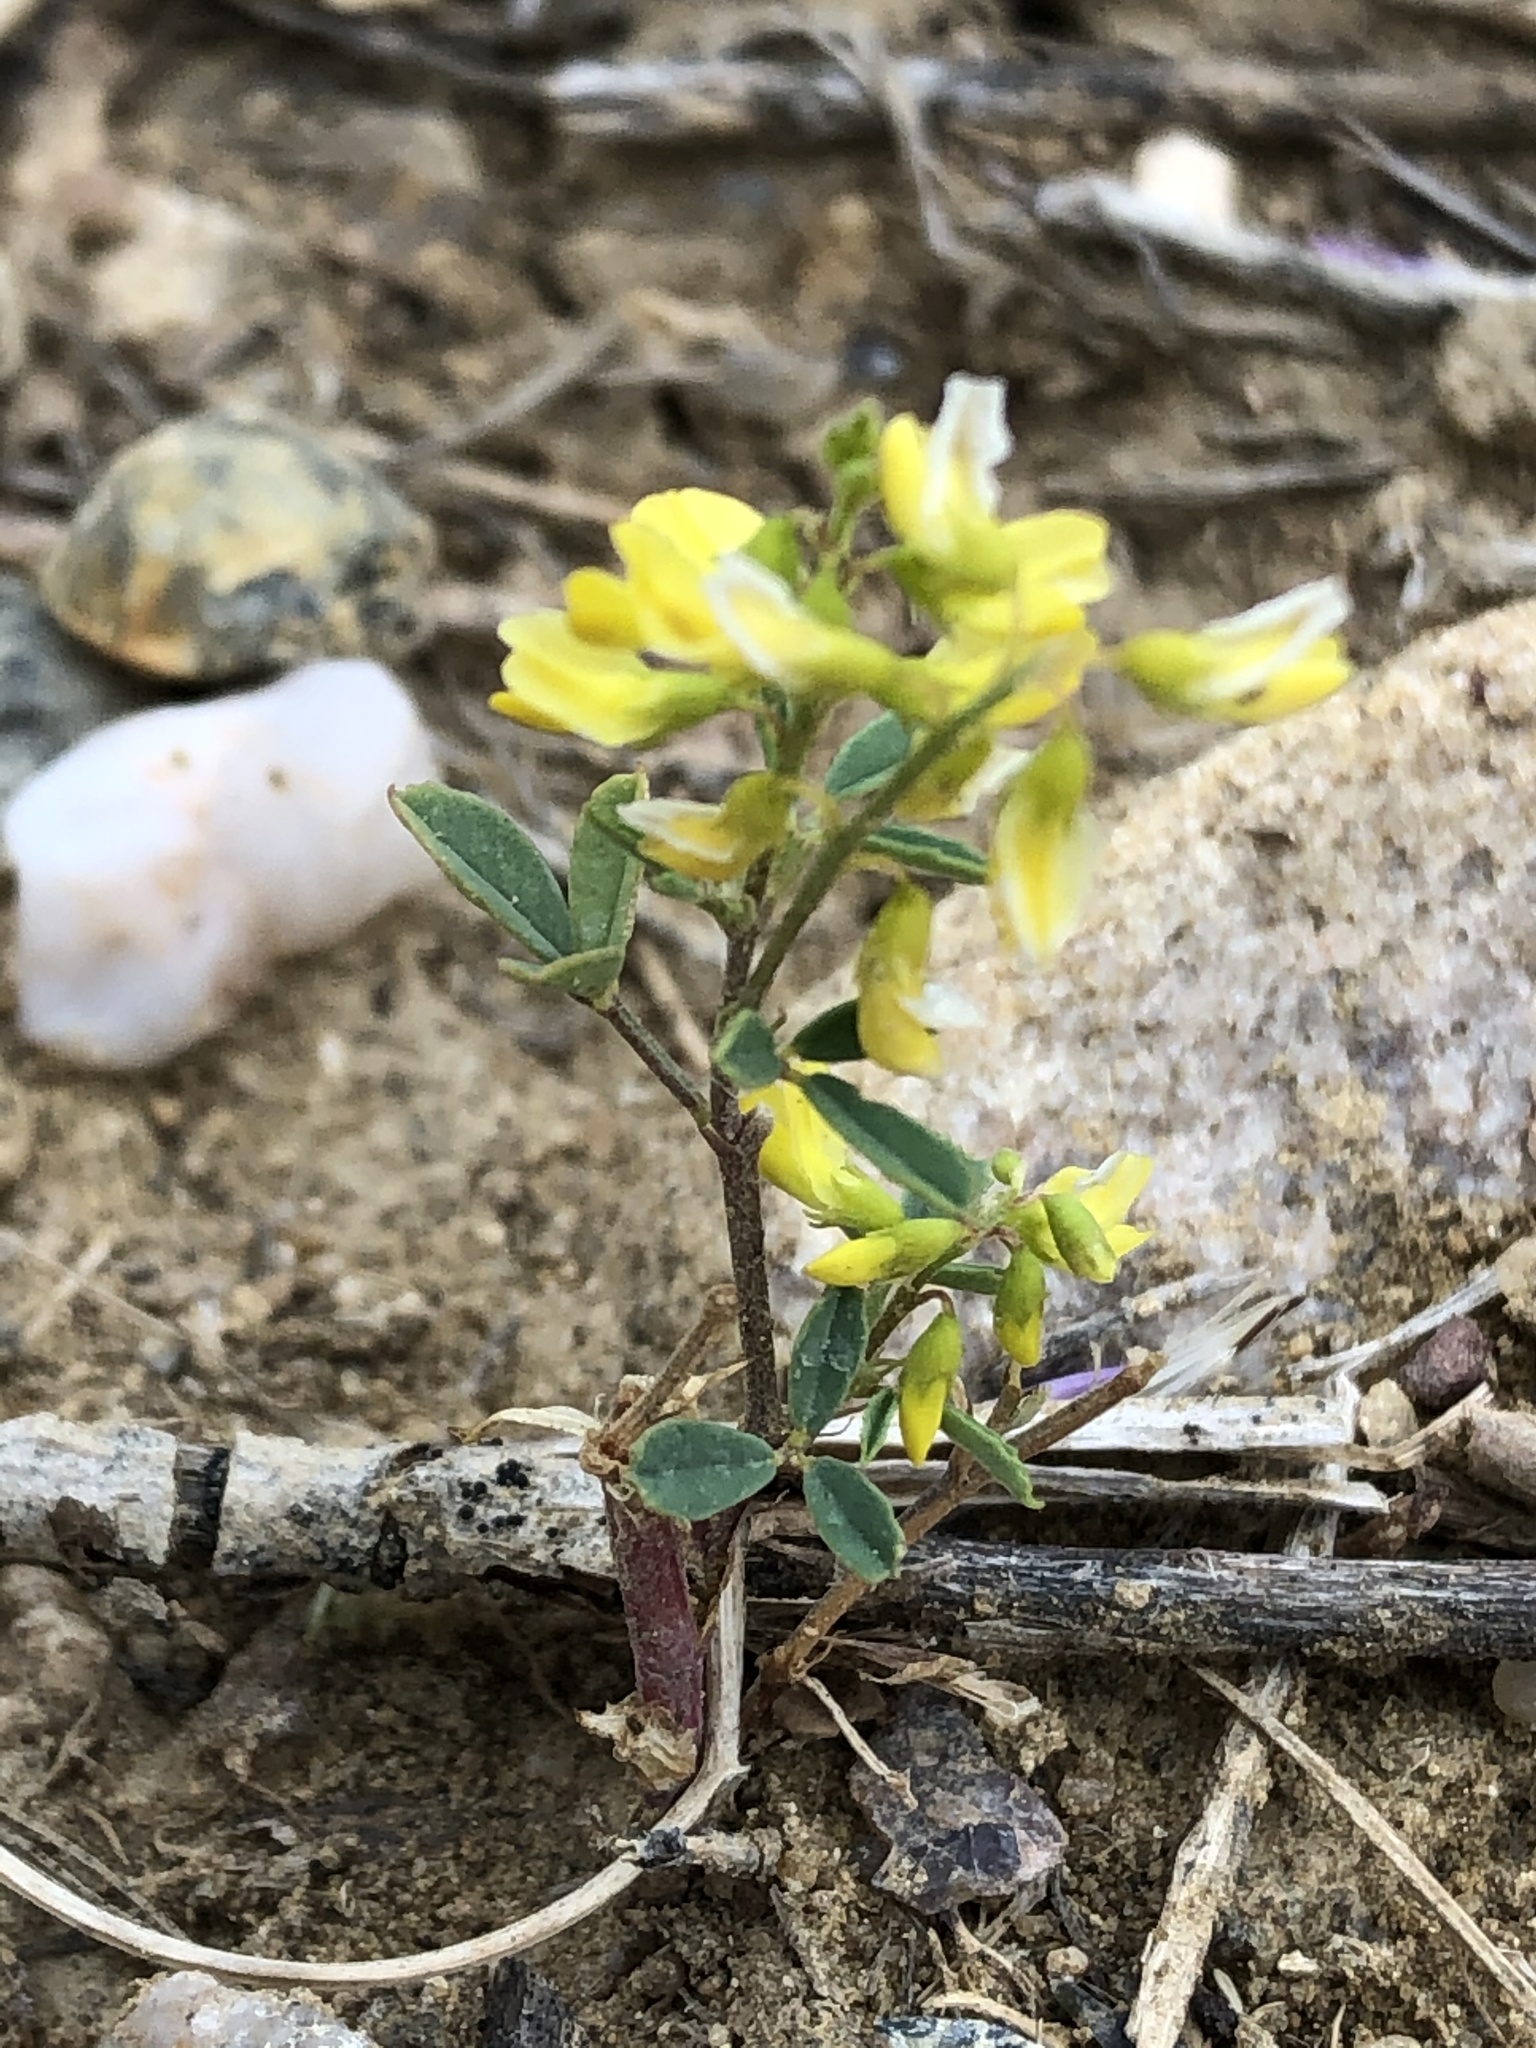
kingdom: Plantae
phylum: Tracheophyta
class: Magnoliopsida
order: Fabales
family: Fabaceae
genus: Melilotus
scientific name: Melilotus officinalis
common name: Sweetclover
